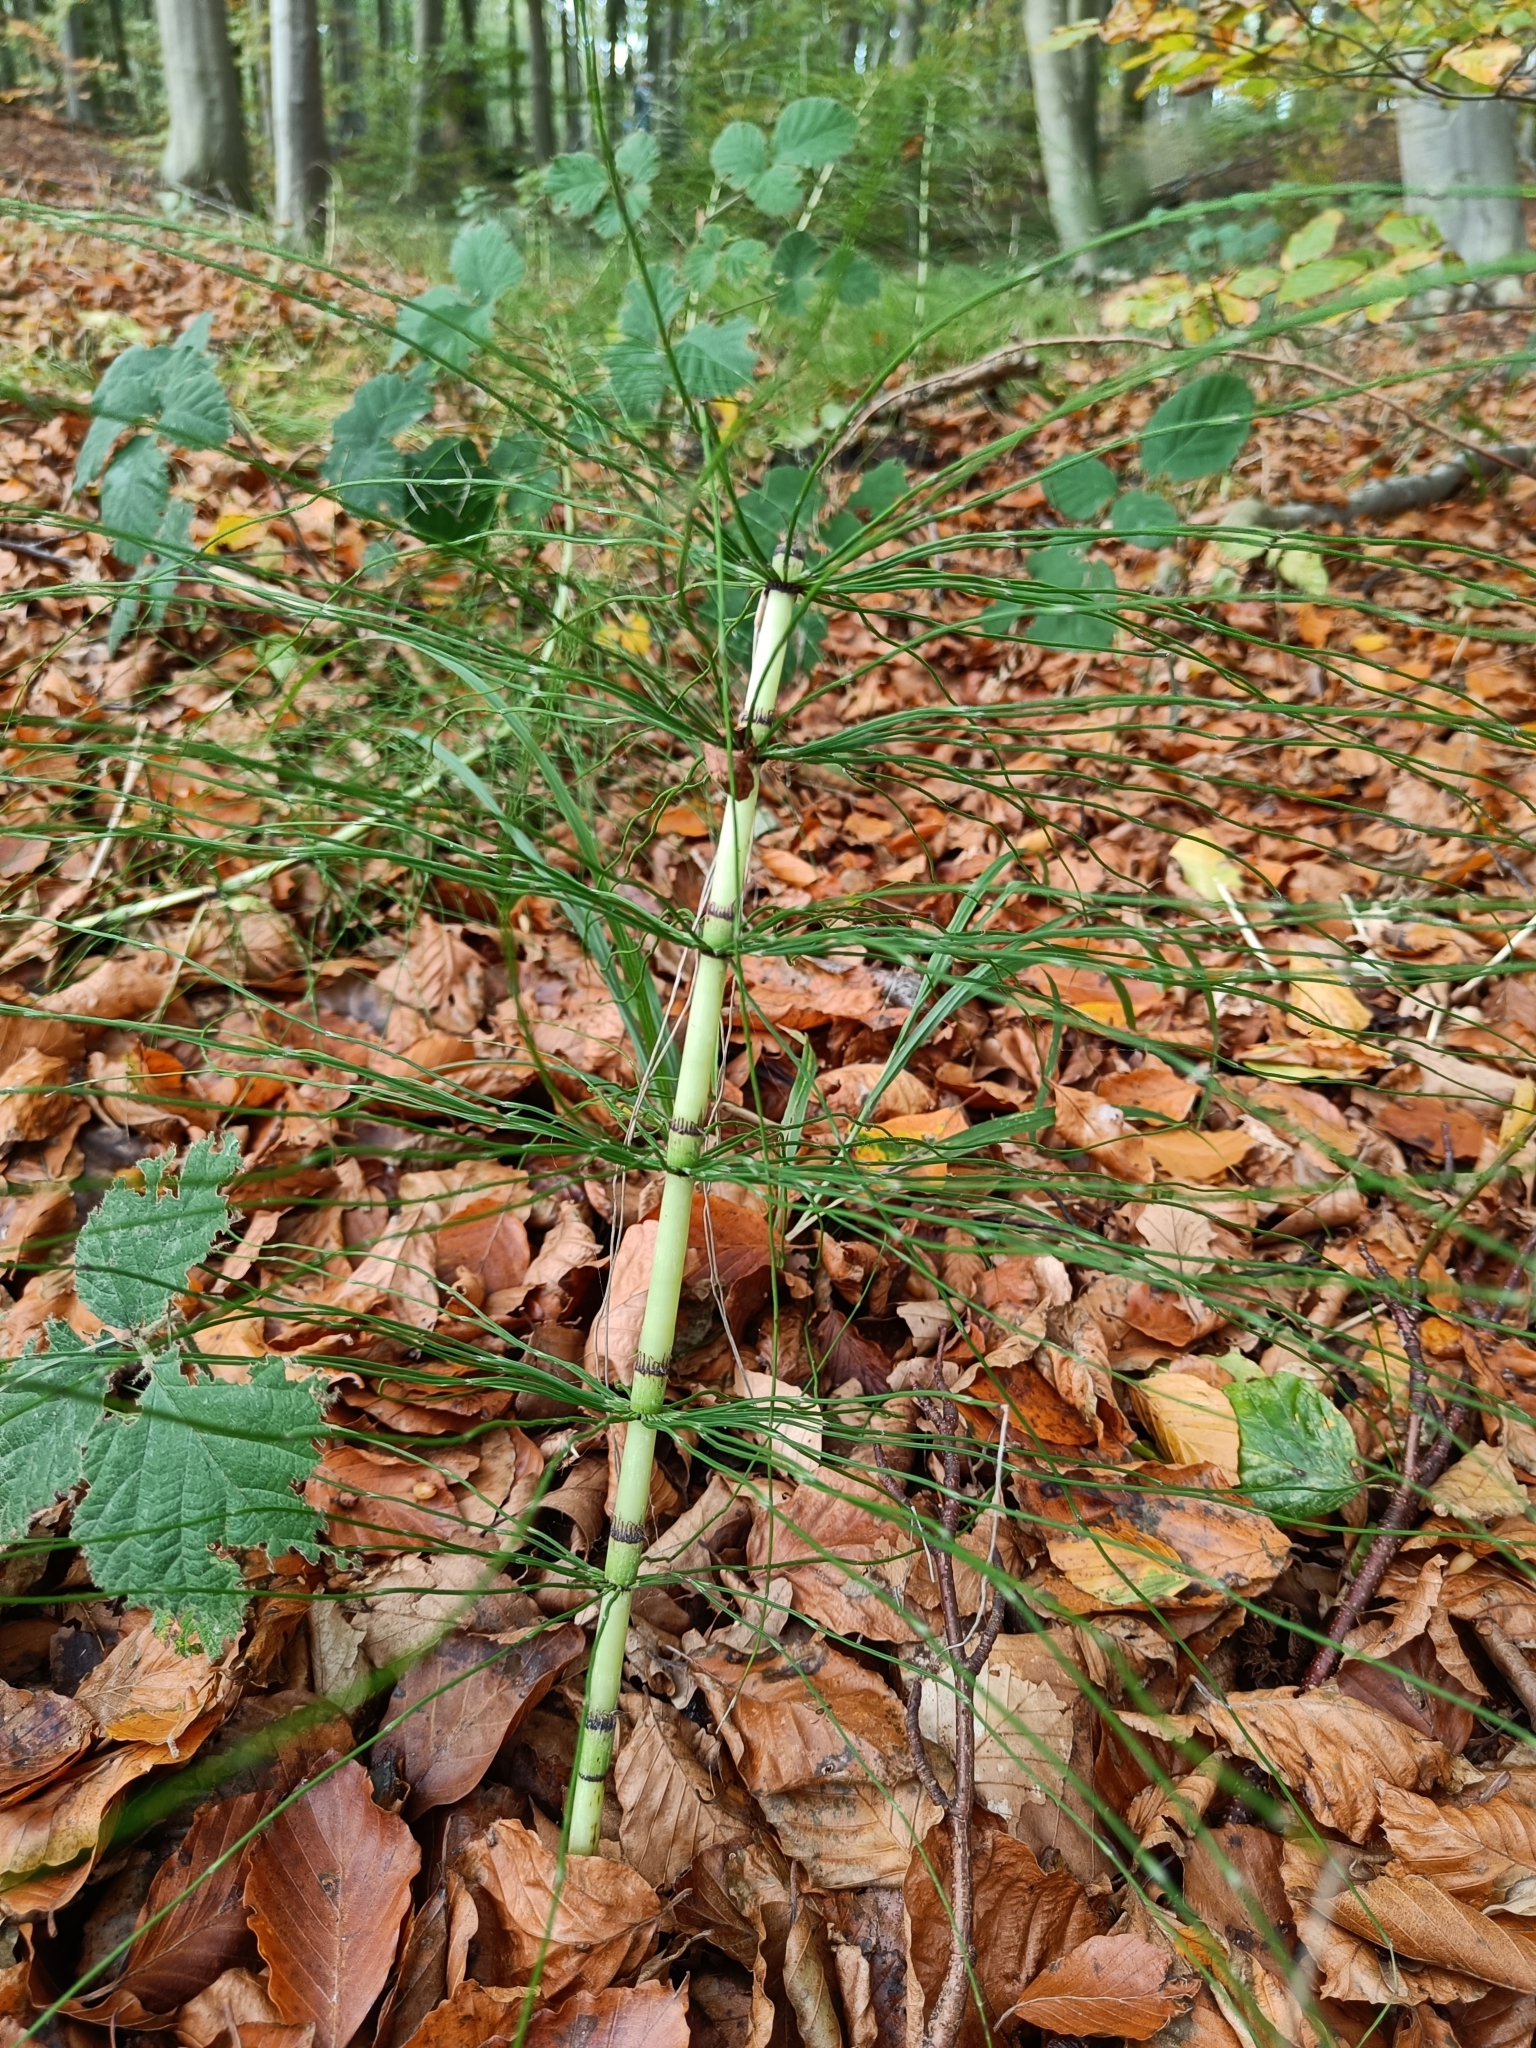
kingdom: Plantae
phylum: Tracheophyta
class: Polypodiopsida
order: Equisetales
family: Equisetaceae
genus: Equisetum
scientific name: Equisetum telmateia
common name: Great horsetail
